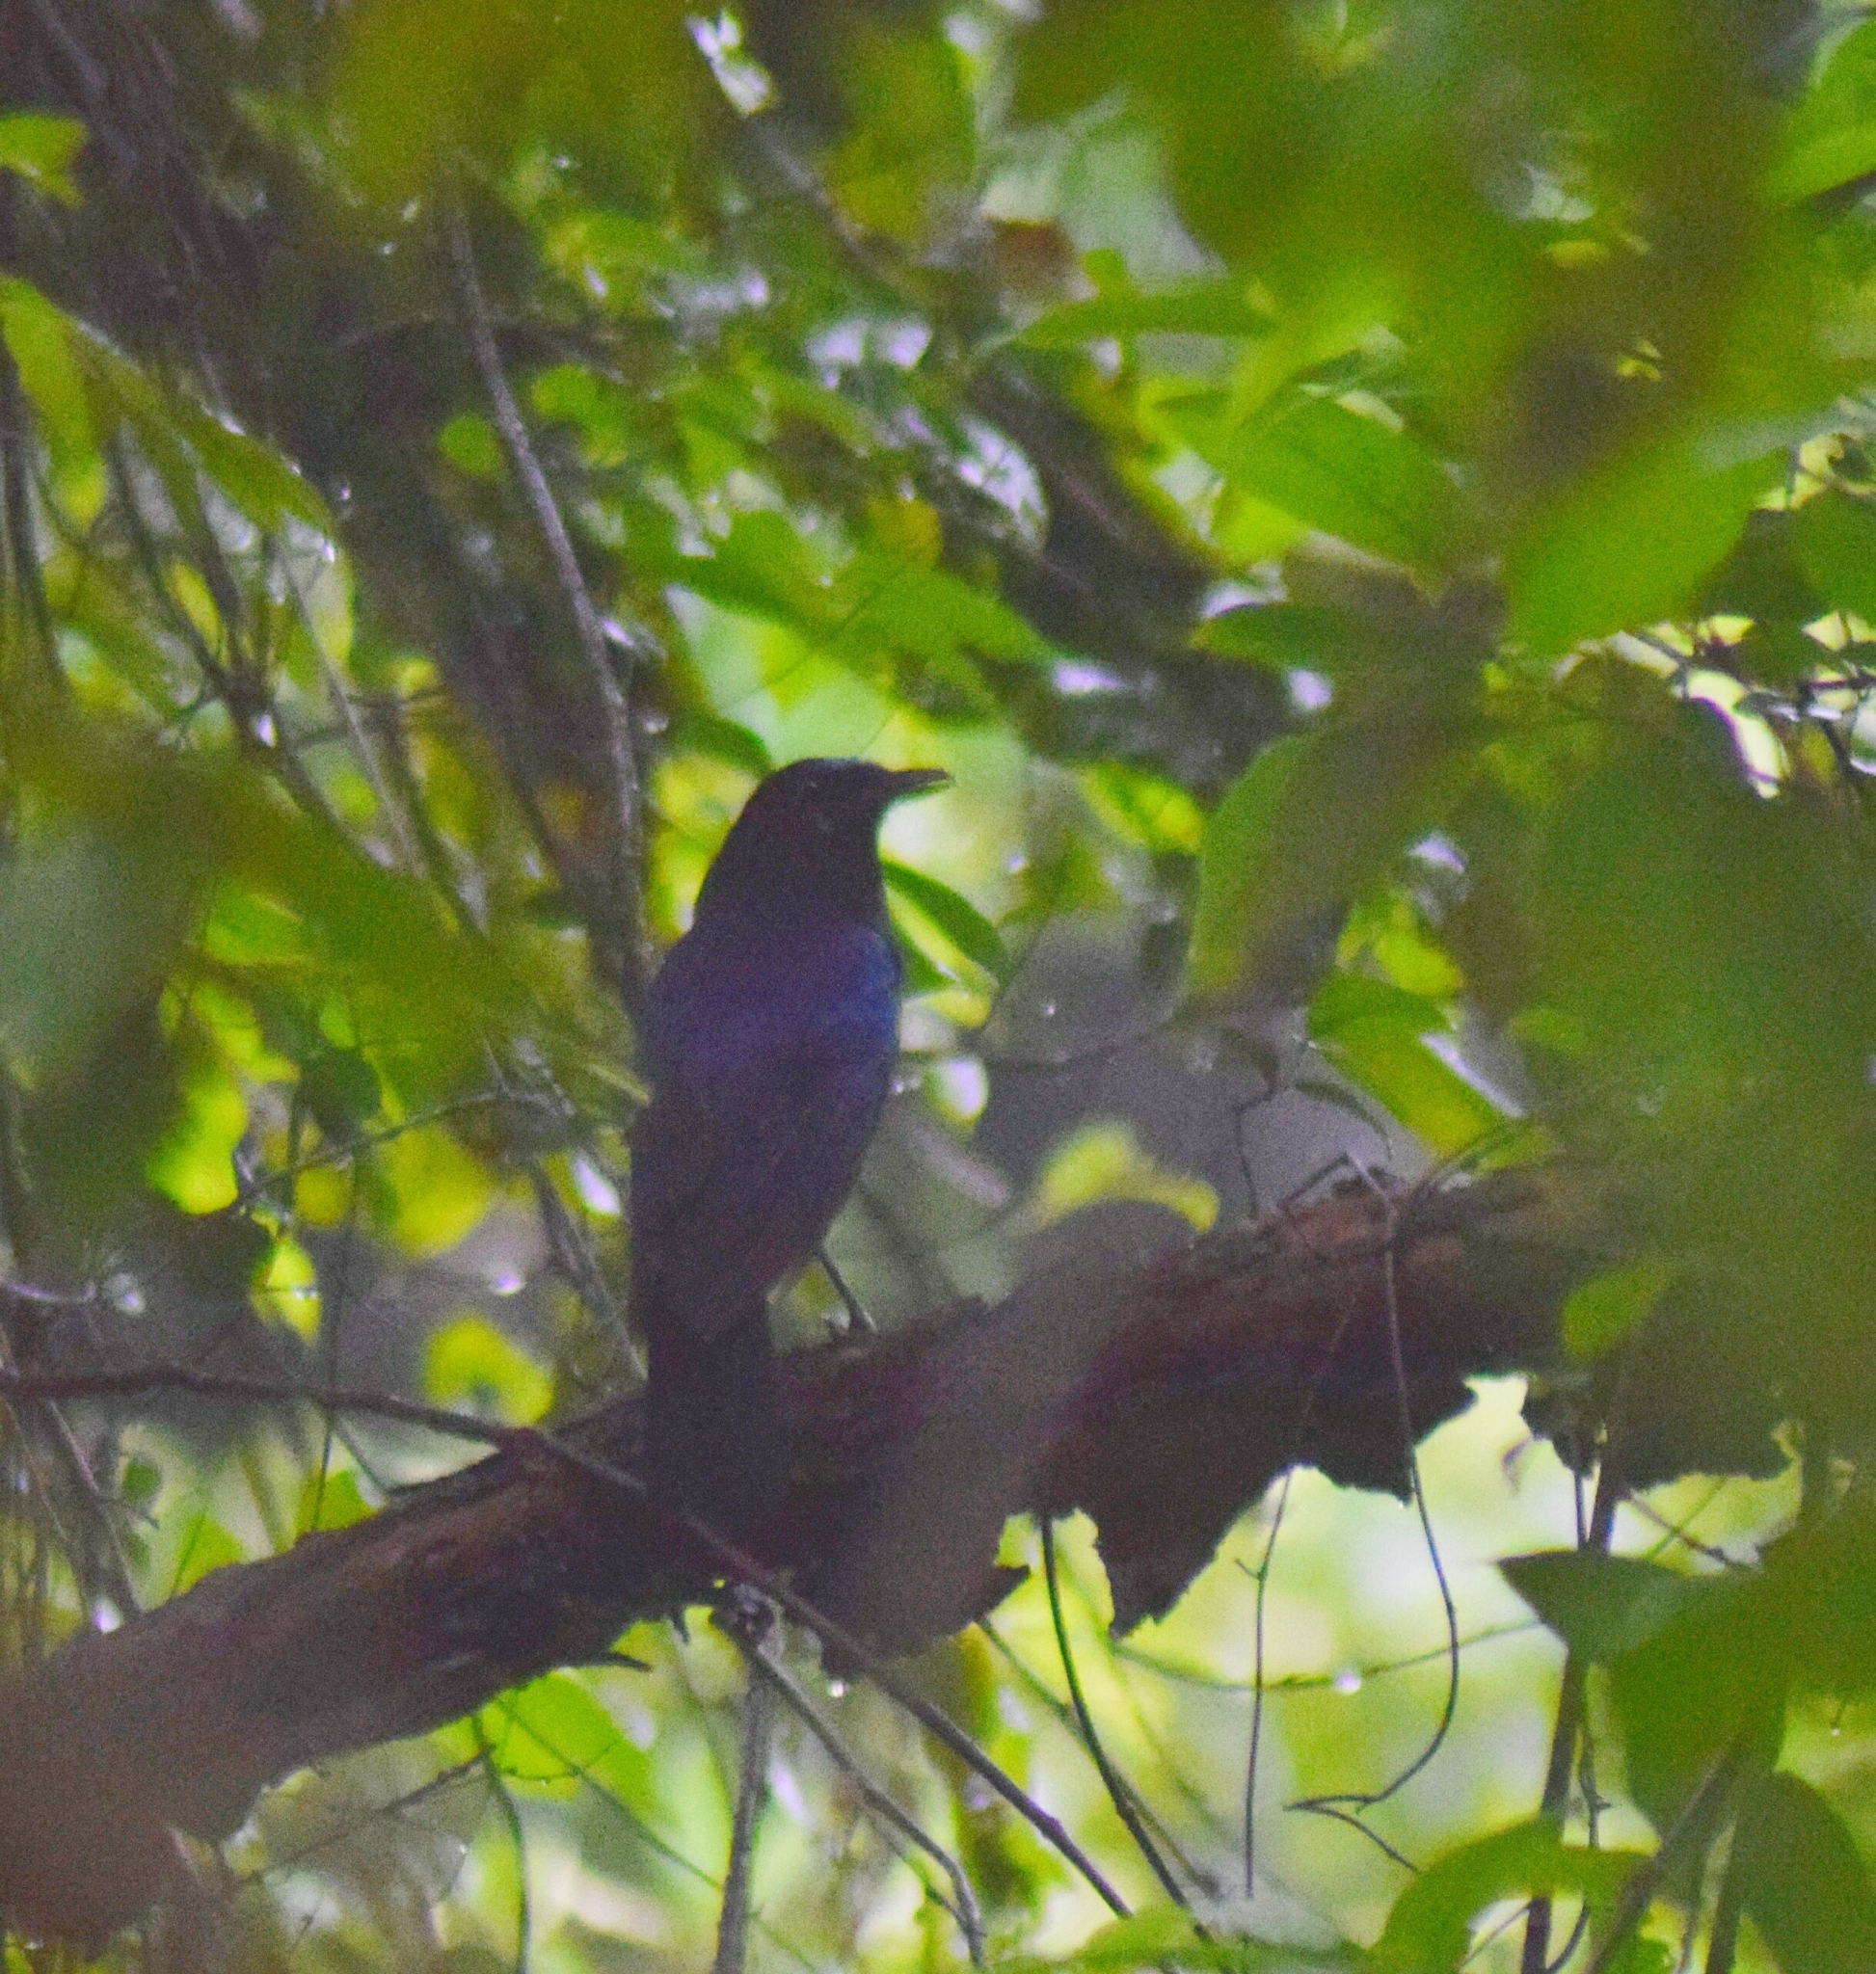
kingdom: Animalia
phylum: Chordata
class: Aves
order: Passeriformes
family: Muscicapidae
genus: Myophonus
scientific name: Myophonus horsfieldii
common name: Malabar whistling-thrush
